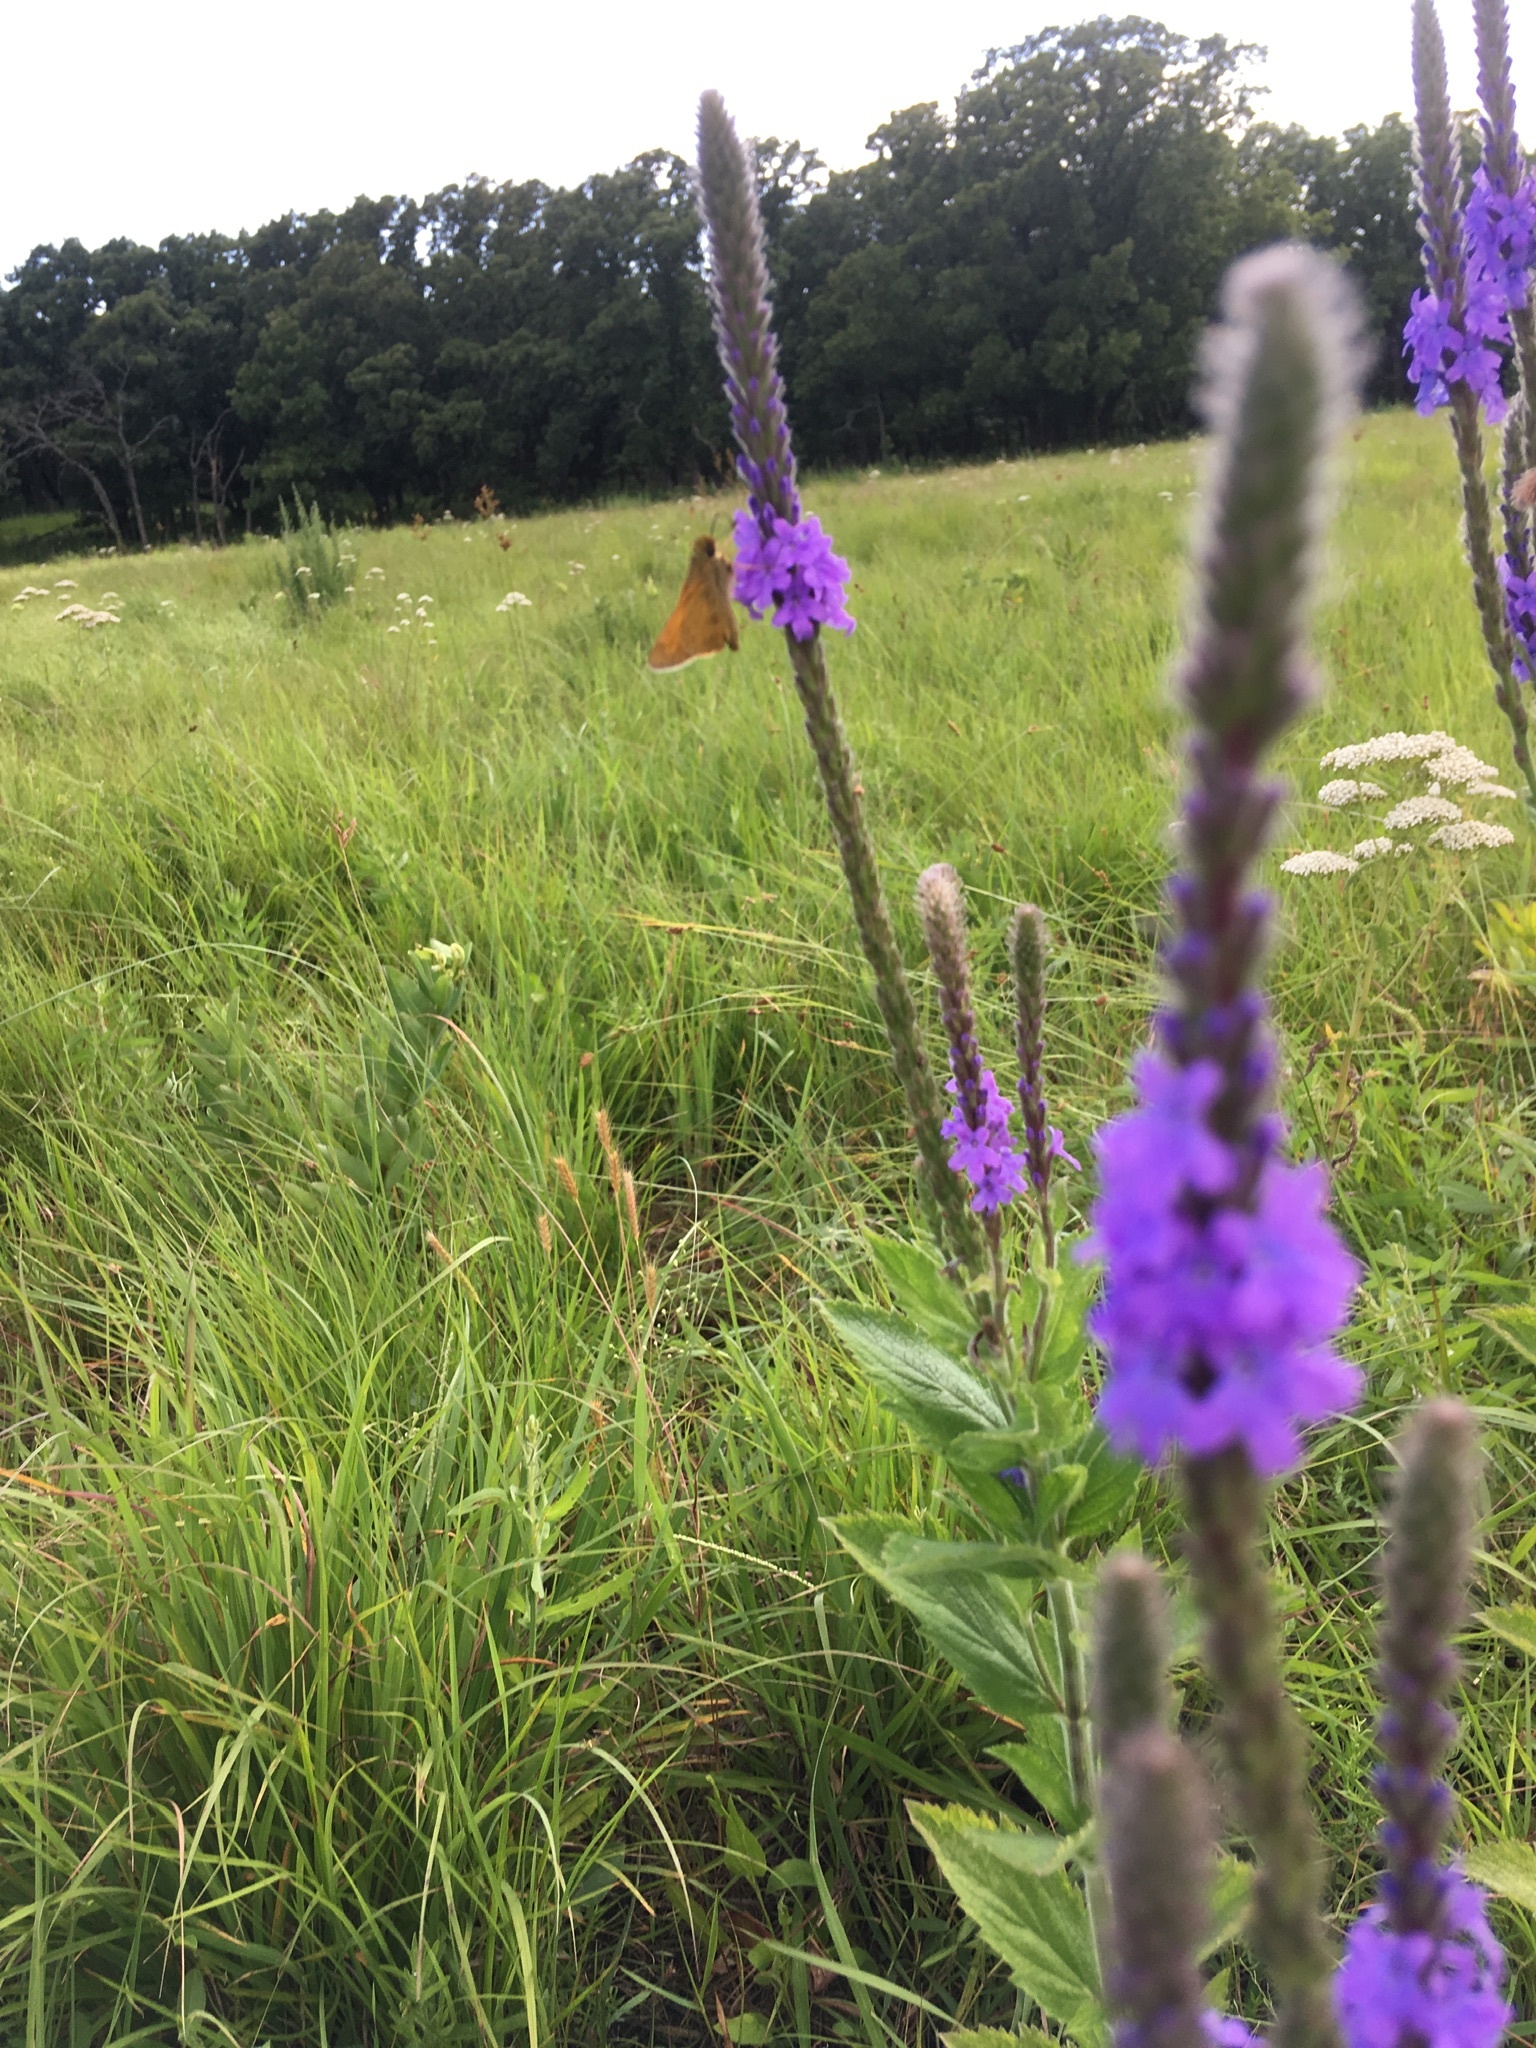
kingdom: Animalia
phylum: Arthropoda
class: Insecta
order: Lepidoptera
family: Hesperiidae
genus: Atalopedes
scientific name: Atalopedes
